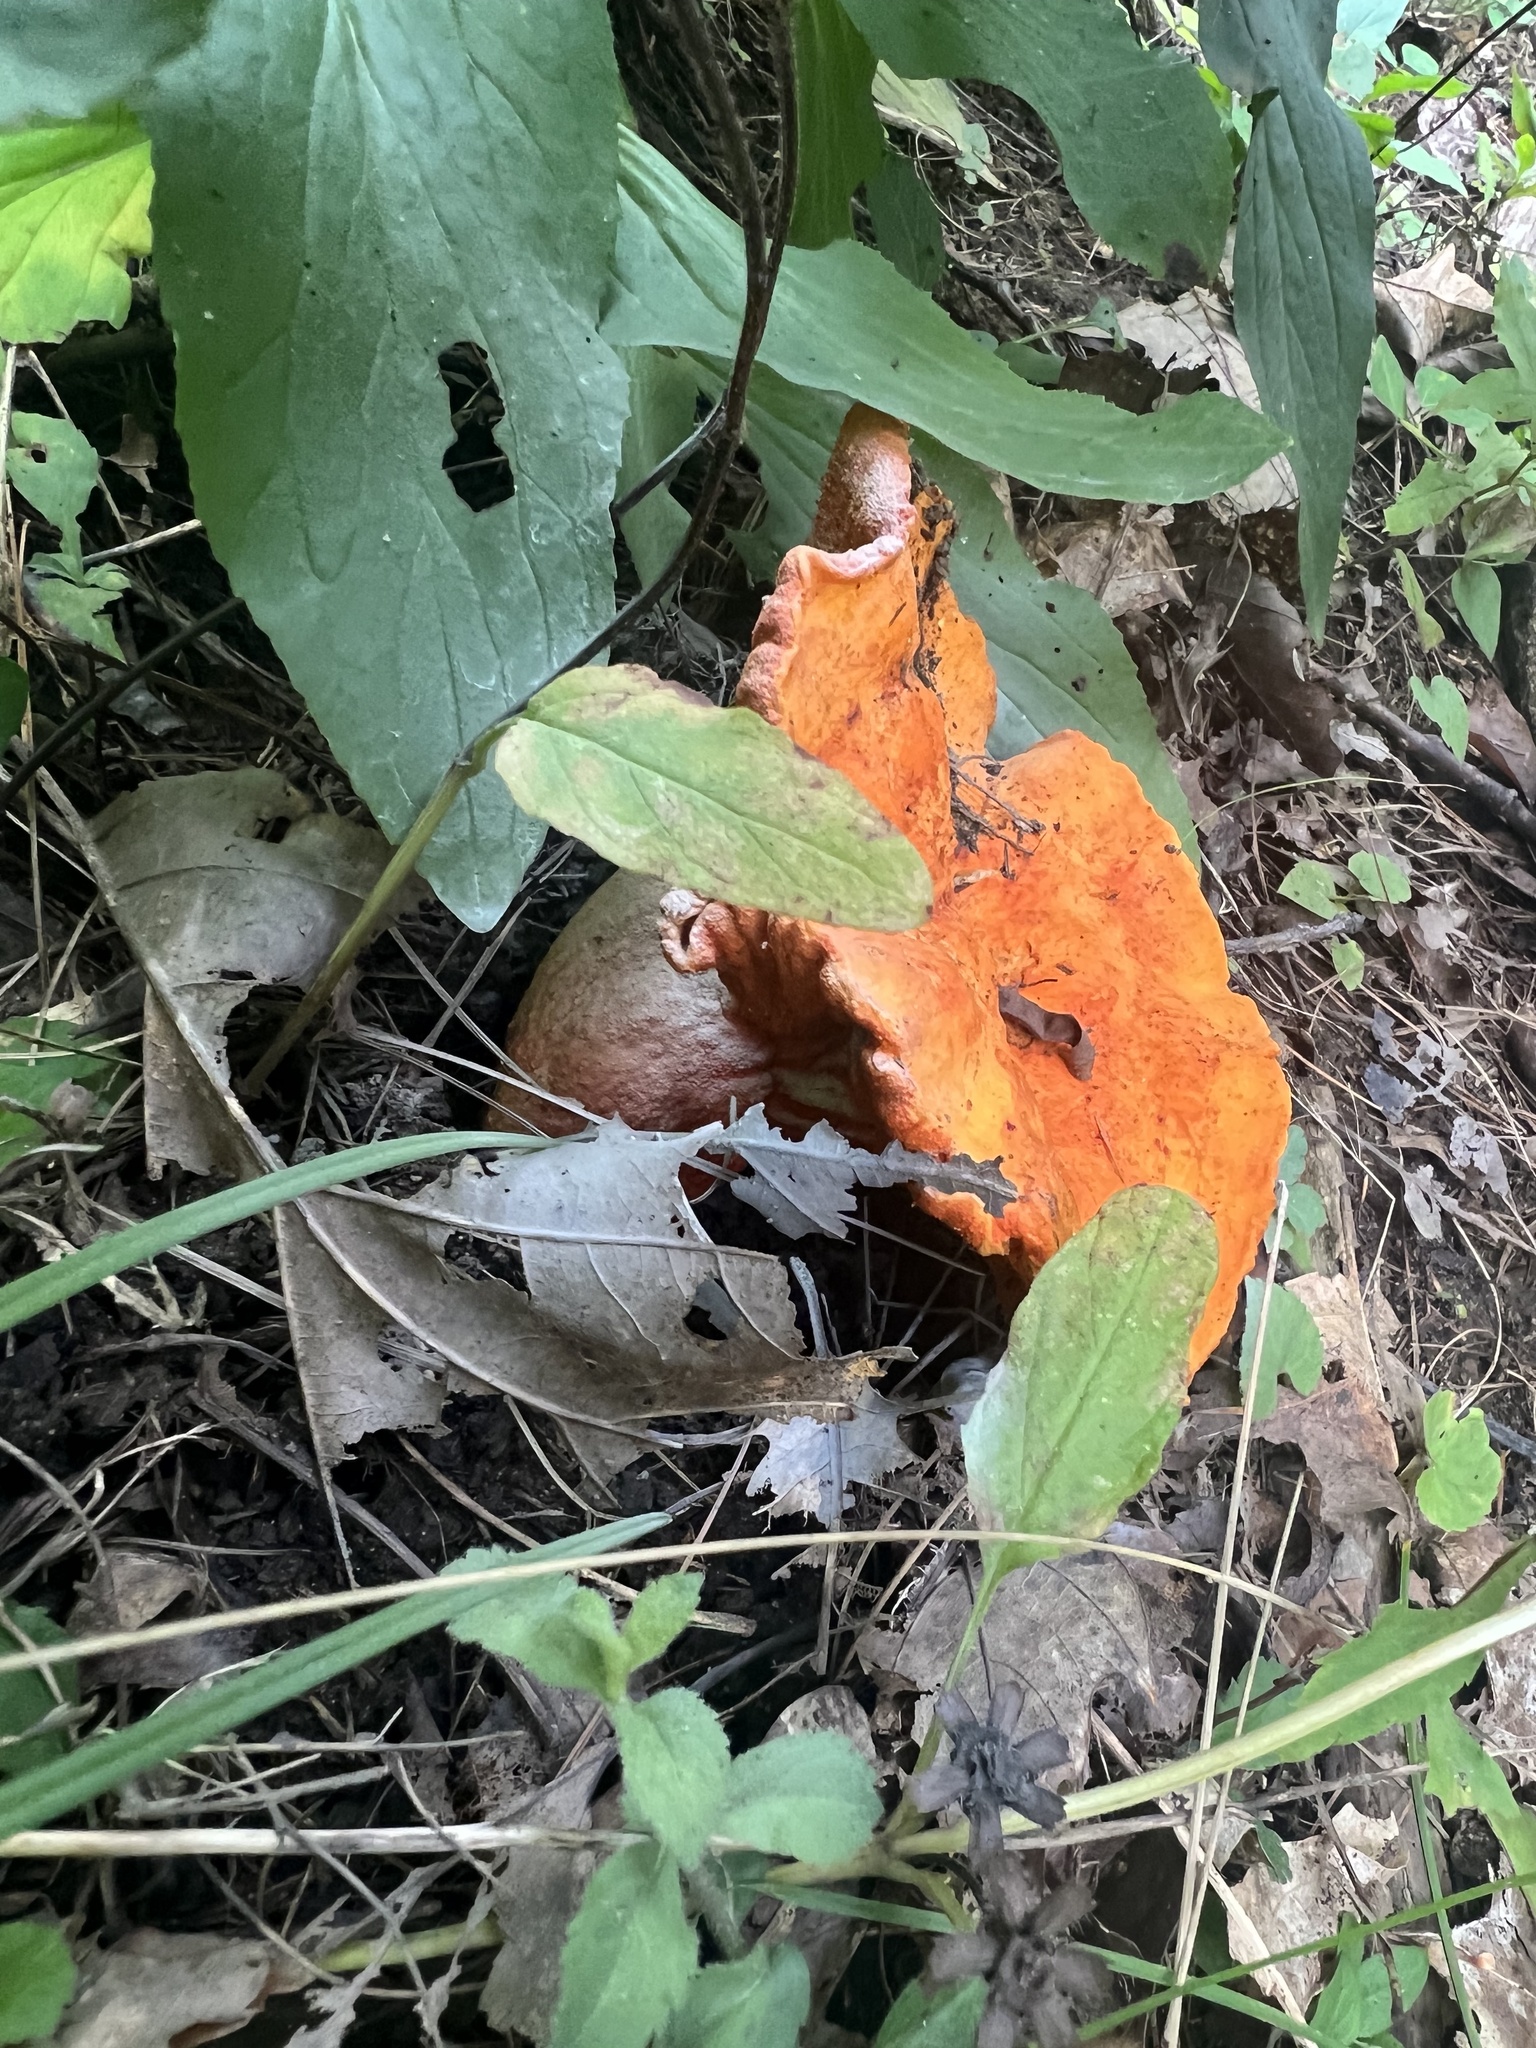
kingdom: Fungi
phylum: Ascomycota
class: Sordariomycetes
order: Hypocreales
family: Hypocreaceae
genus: Hypomyces
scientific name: Hypomyces lactifluorum
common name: Lobster mushroom
